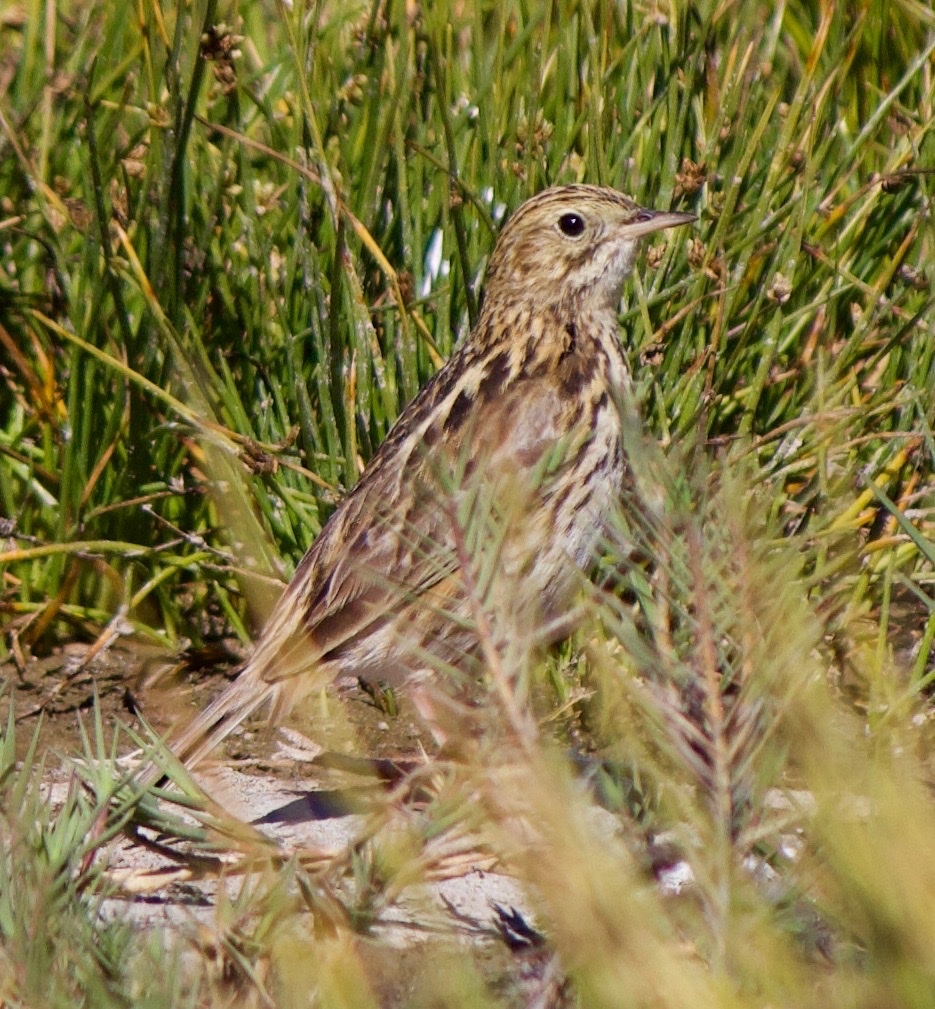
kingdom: Animalia
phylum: Chordata
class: Aves
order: Passeriformes
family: Motacillidae
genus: Anthus
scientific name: Anthus correndera
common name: Correndera pipit
